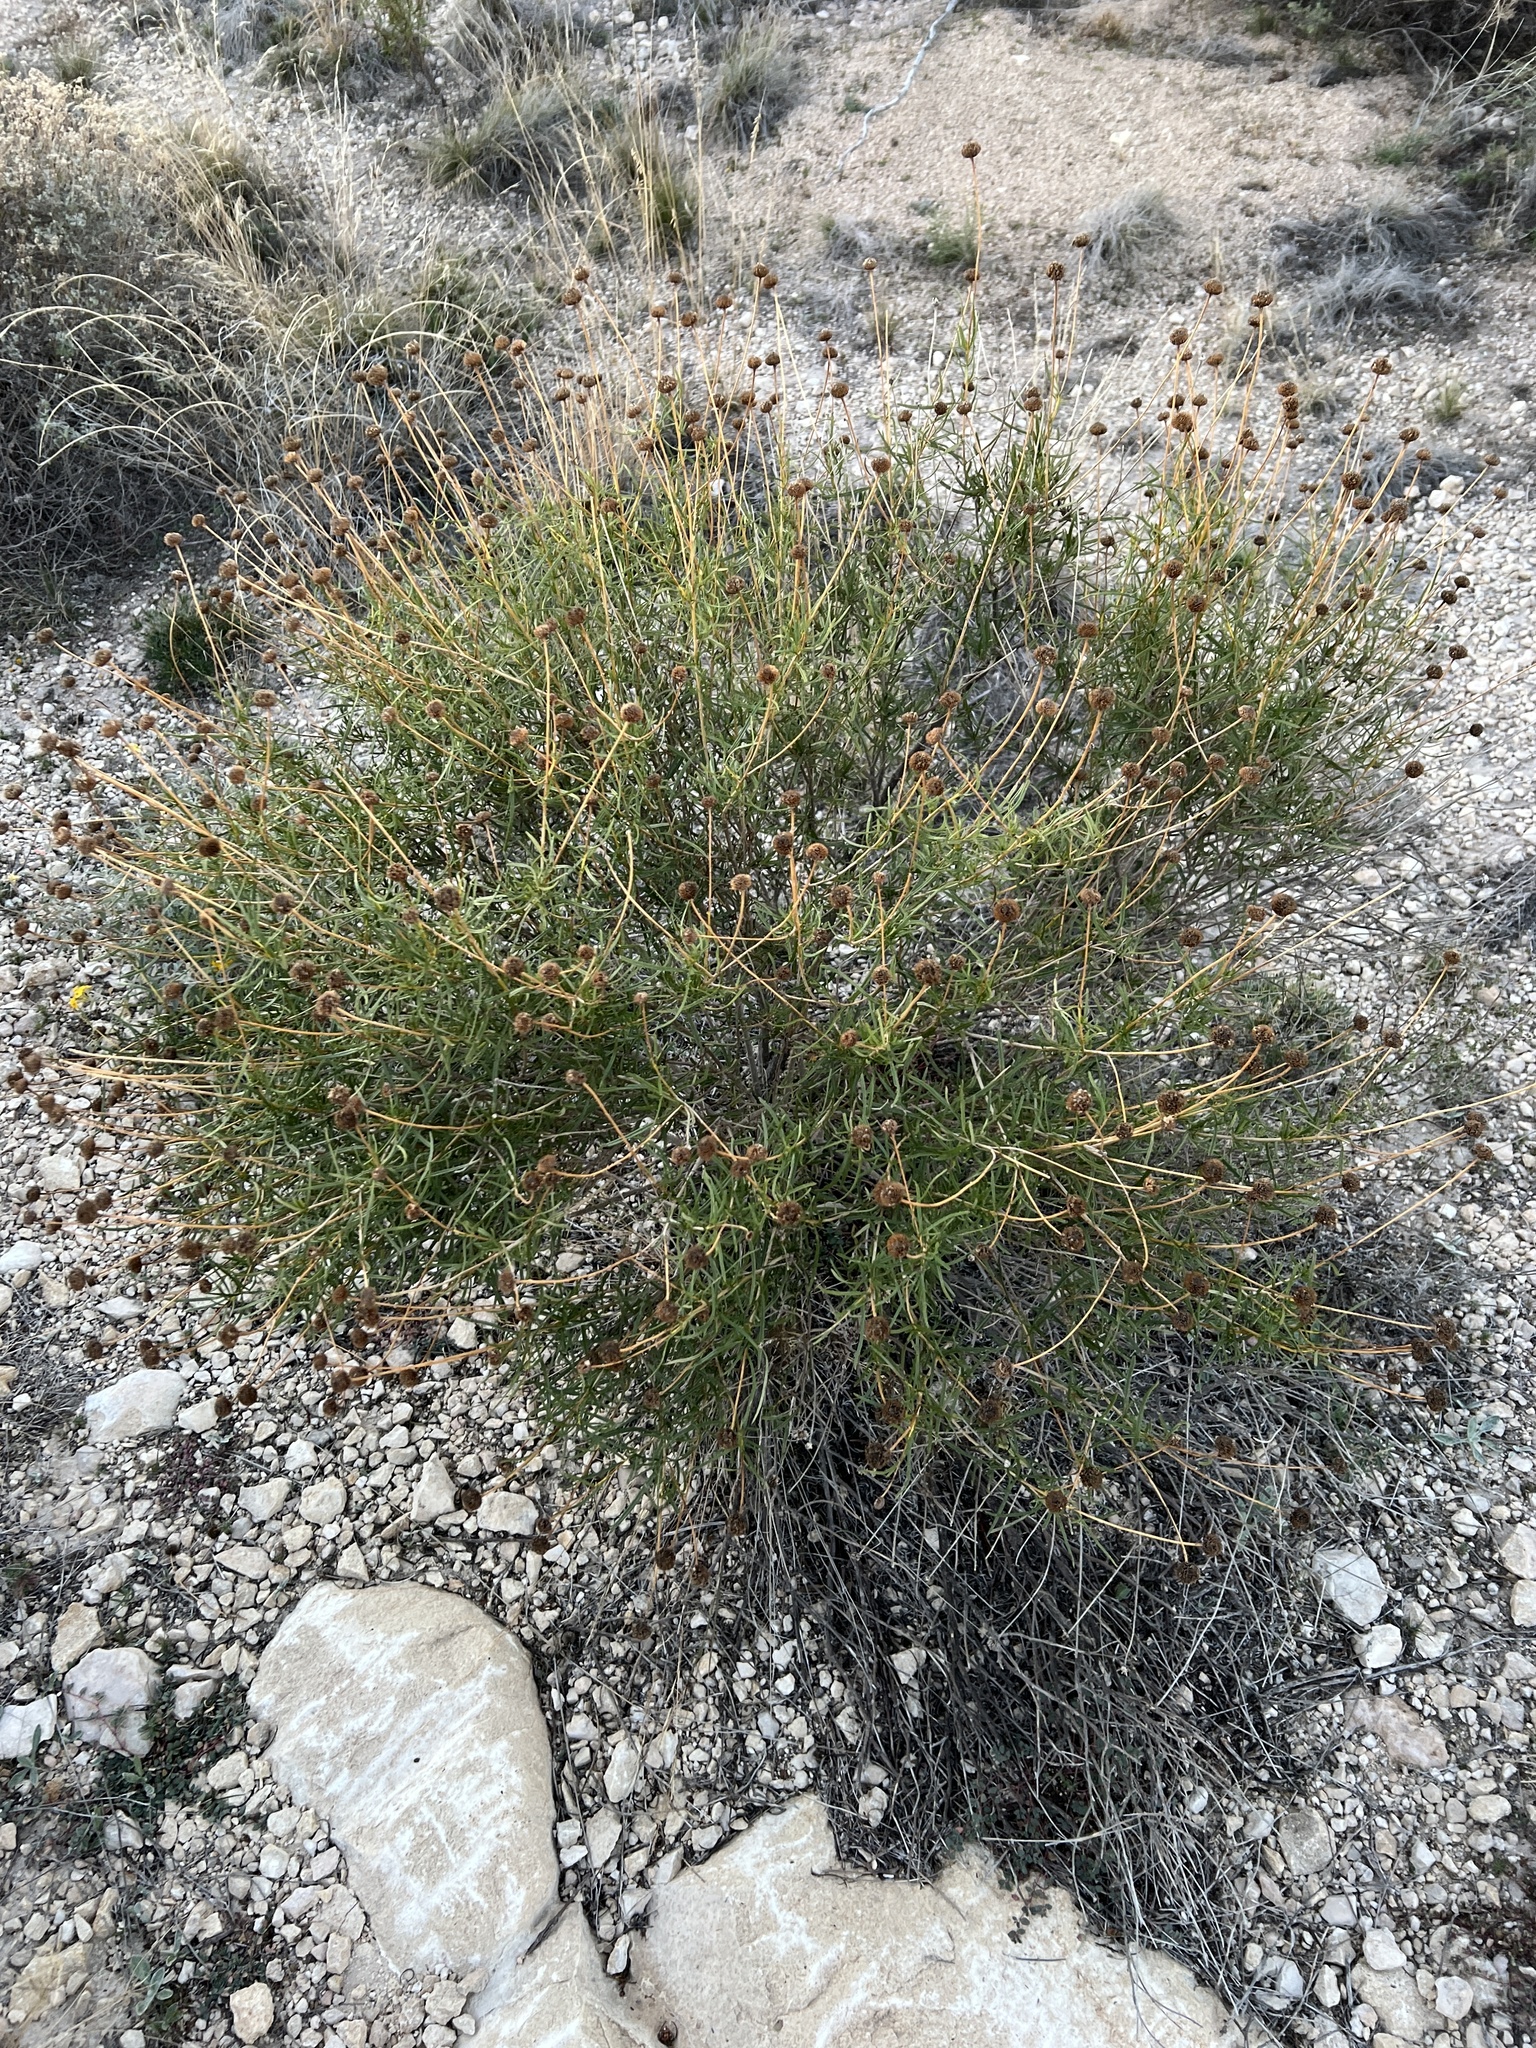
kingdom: Plantae
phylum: Tracheophyta
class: Magnoliopsida
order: Asterales
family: Asteraceae
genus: Sidneya
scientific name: Sidneya tenuifolia
